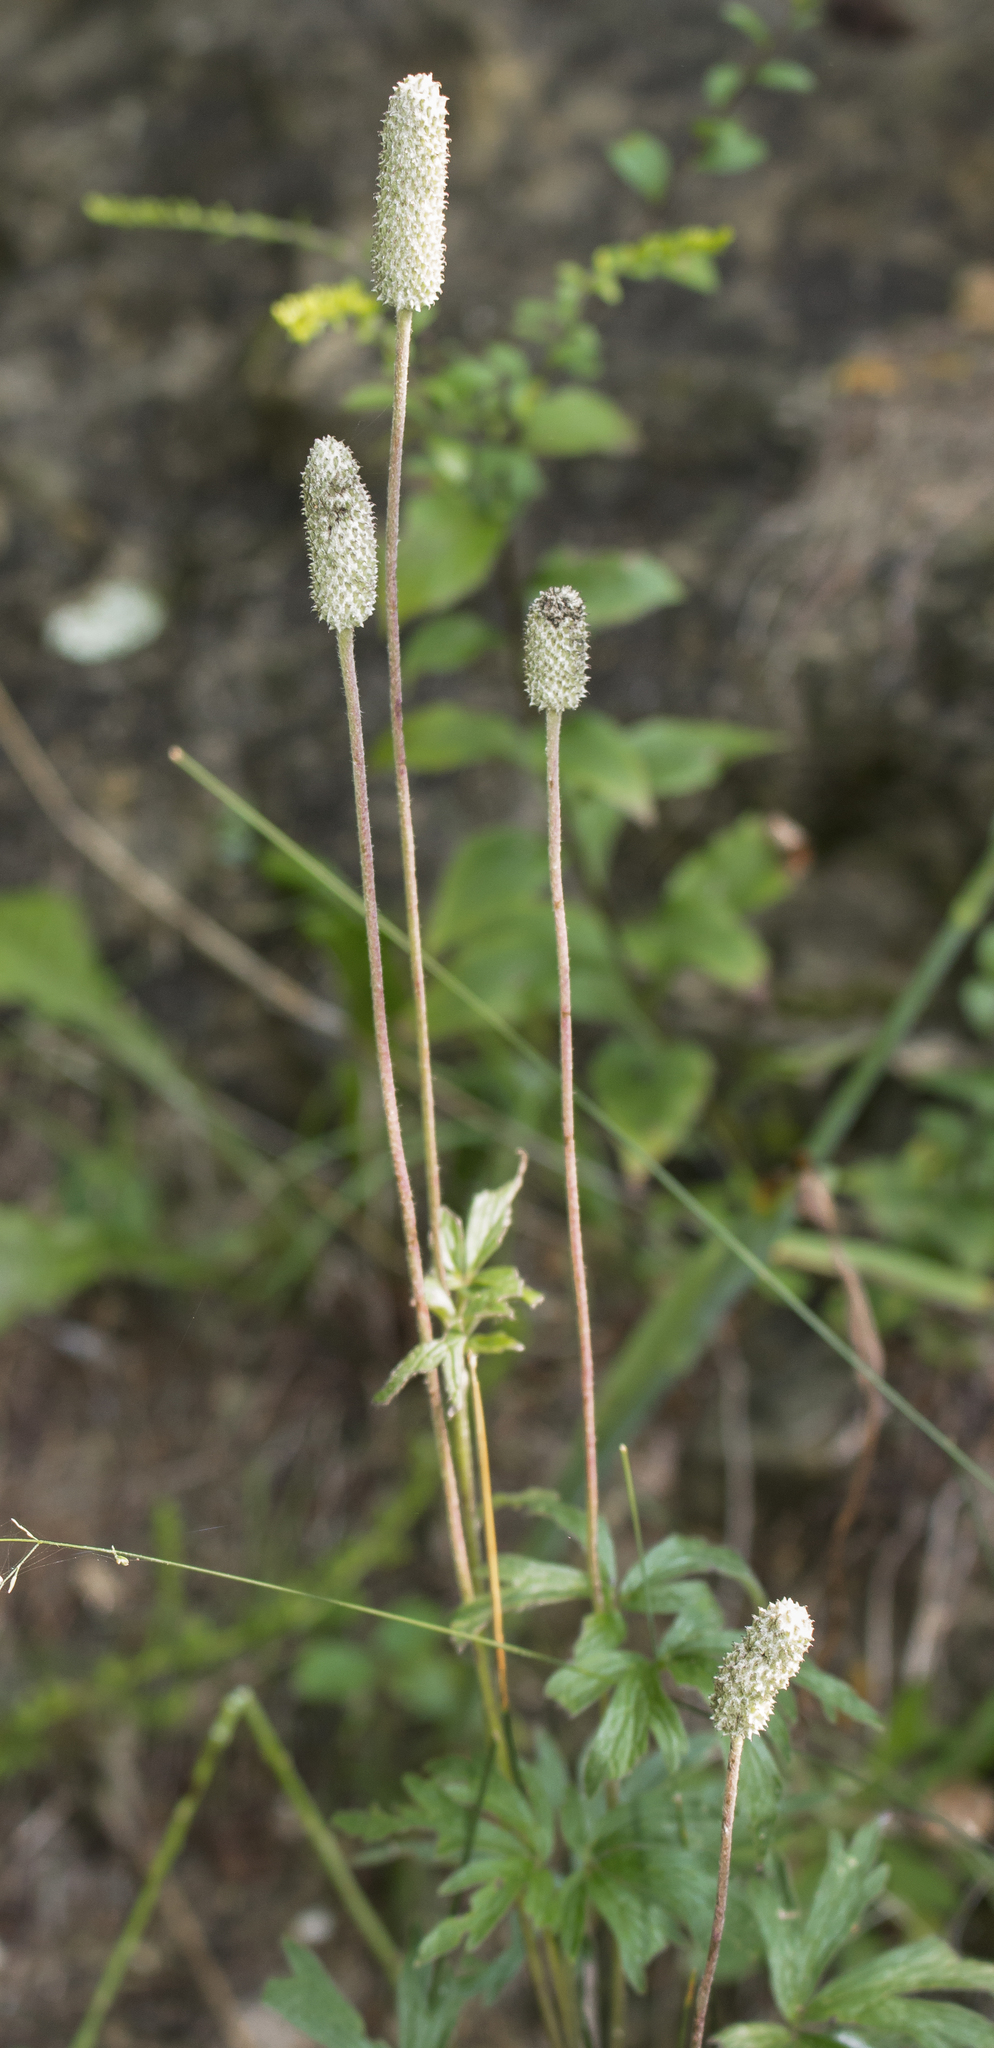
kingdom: Plantae
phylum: Tracheophyta
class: Magnoliopsida
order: Ranunculales
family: Ranunculaceae
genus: Anemone
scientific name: Anemone cylindrica
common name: Candle anemone
